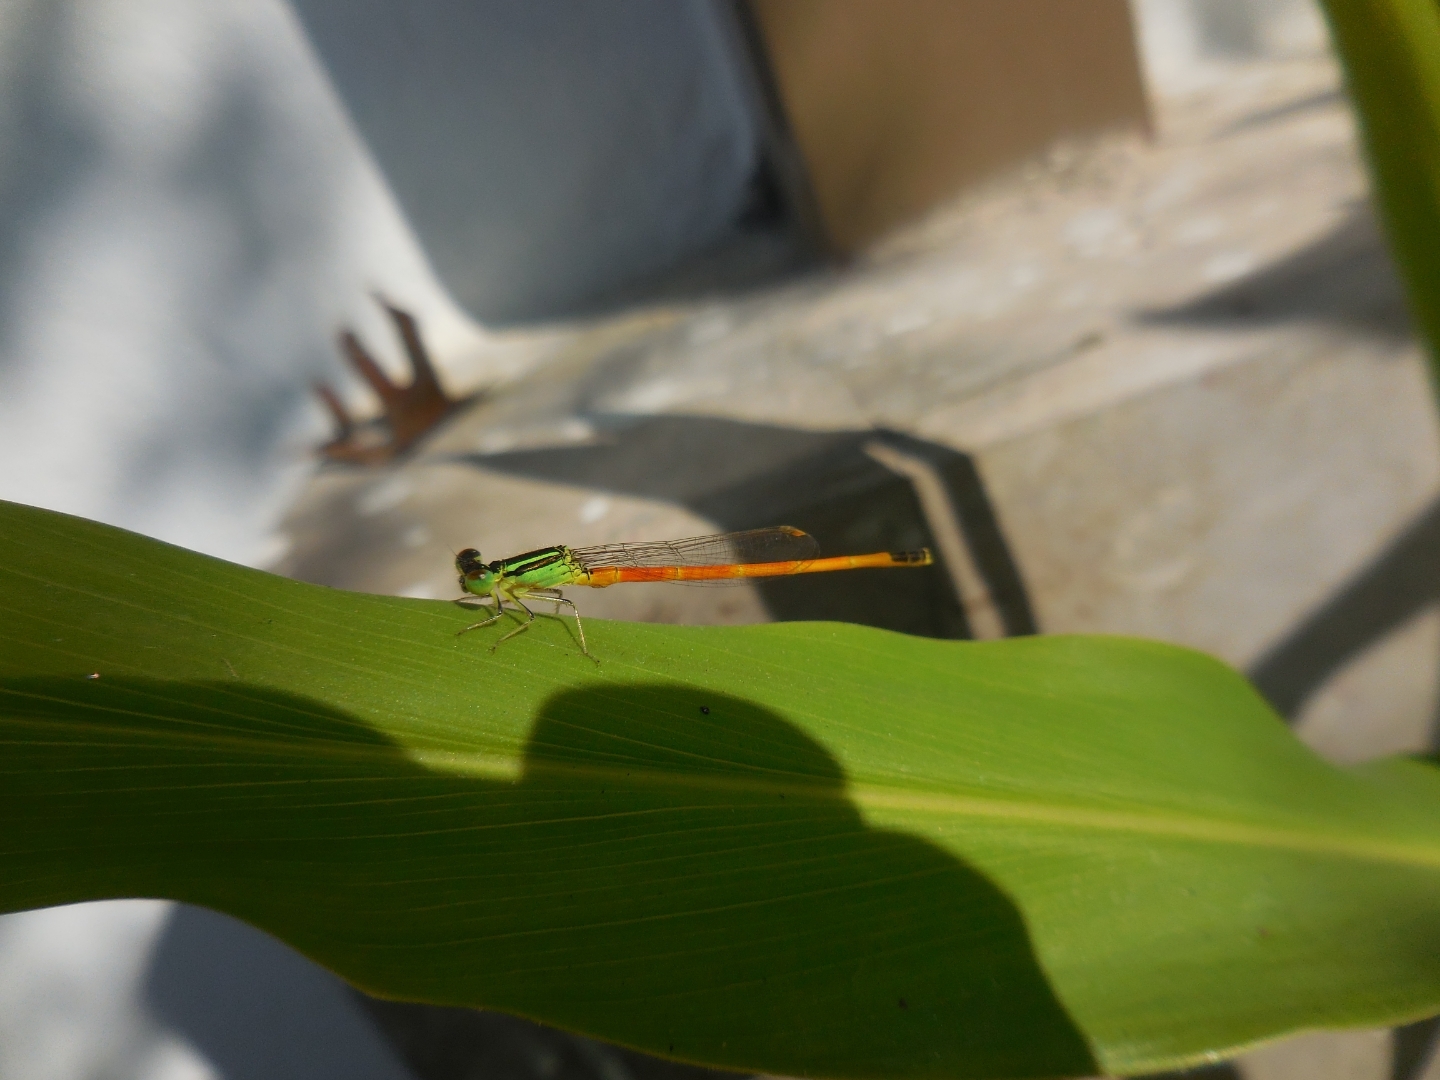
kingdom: Animalia
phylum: Arthropoda
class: Insecta
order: Odonata
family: Coenagrionidae
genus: Ischnura
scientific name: Ischnura rufostigma
